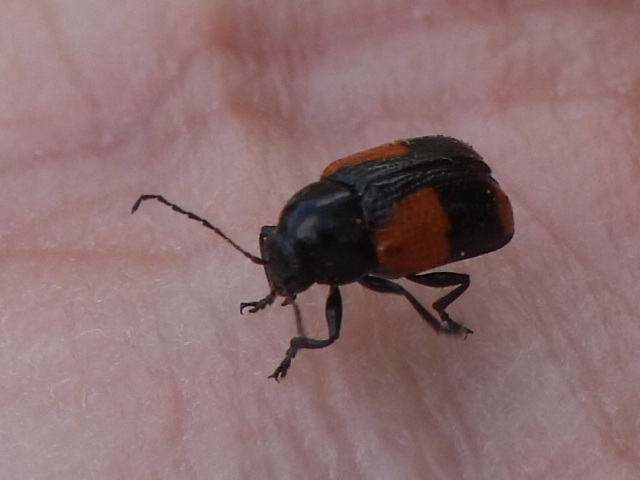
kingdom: Animalia
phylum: Arthropoda
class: Insecta
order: Coleoptera
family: Chrysomelidae
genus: Cryptocephalus
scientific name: Cryptocephalus quadruplex
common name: Black and red sumac leaf beetle
